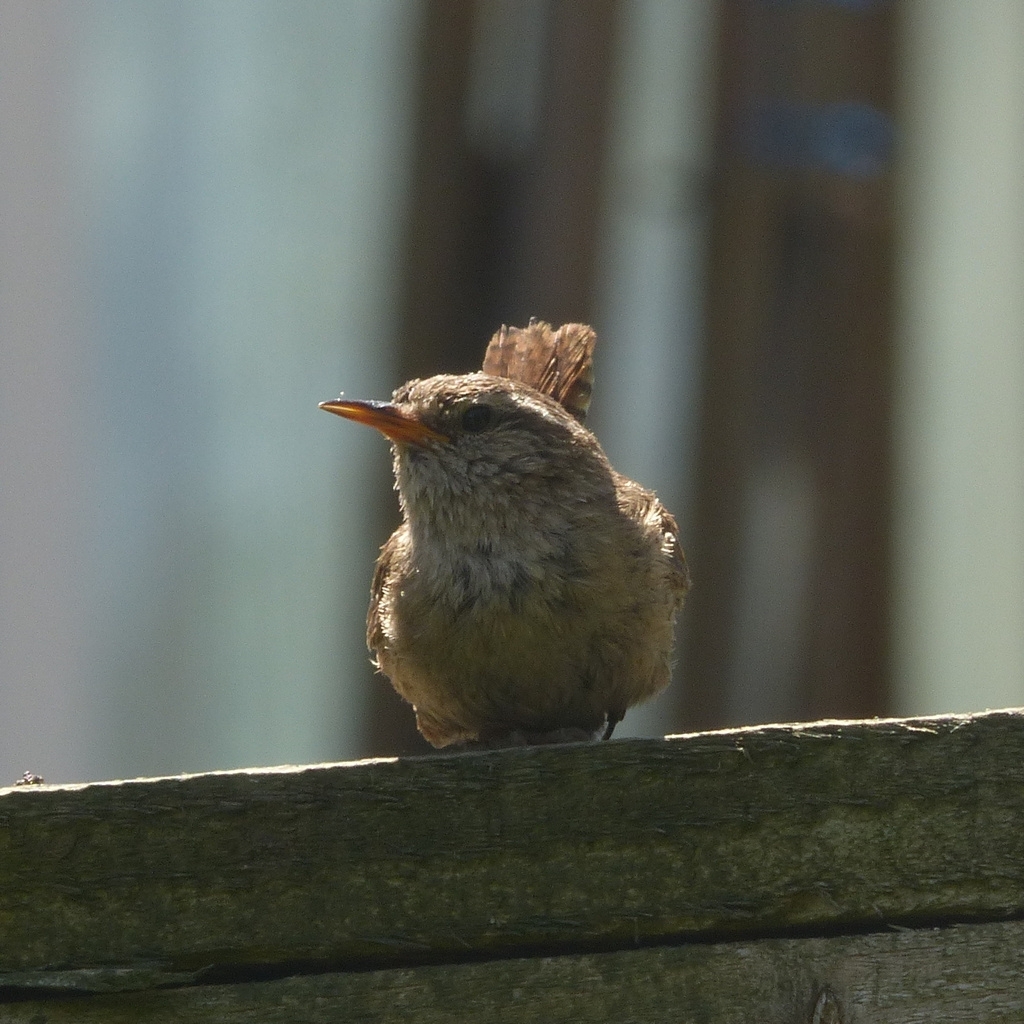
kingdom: Animalia
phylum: Chordata
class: Aves
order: Passeriformes
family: Troglodytidae
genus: Troglodytes
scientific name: Troglodytes troglodytes
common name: Eurasian wren
